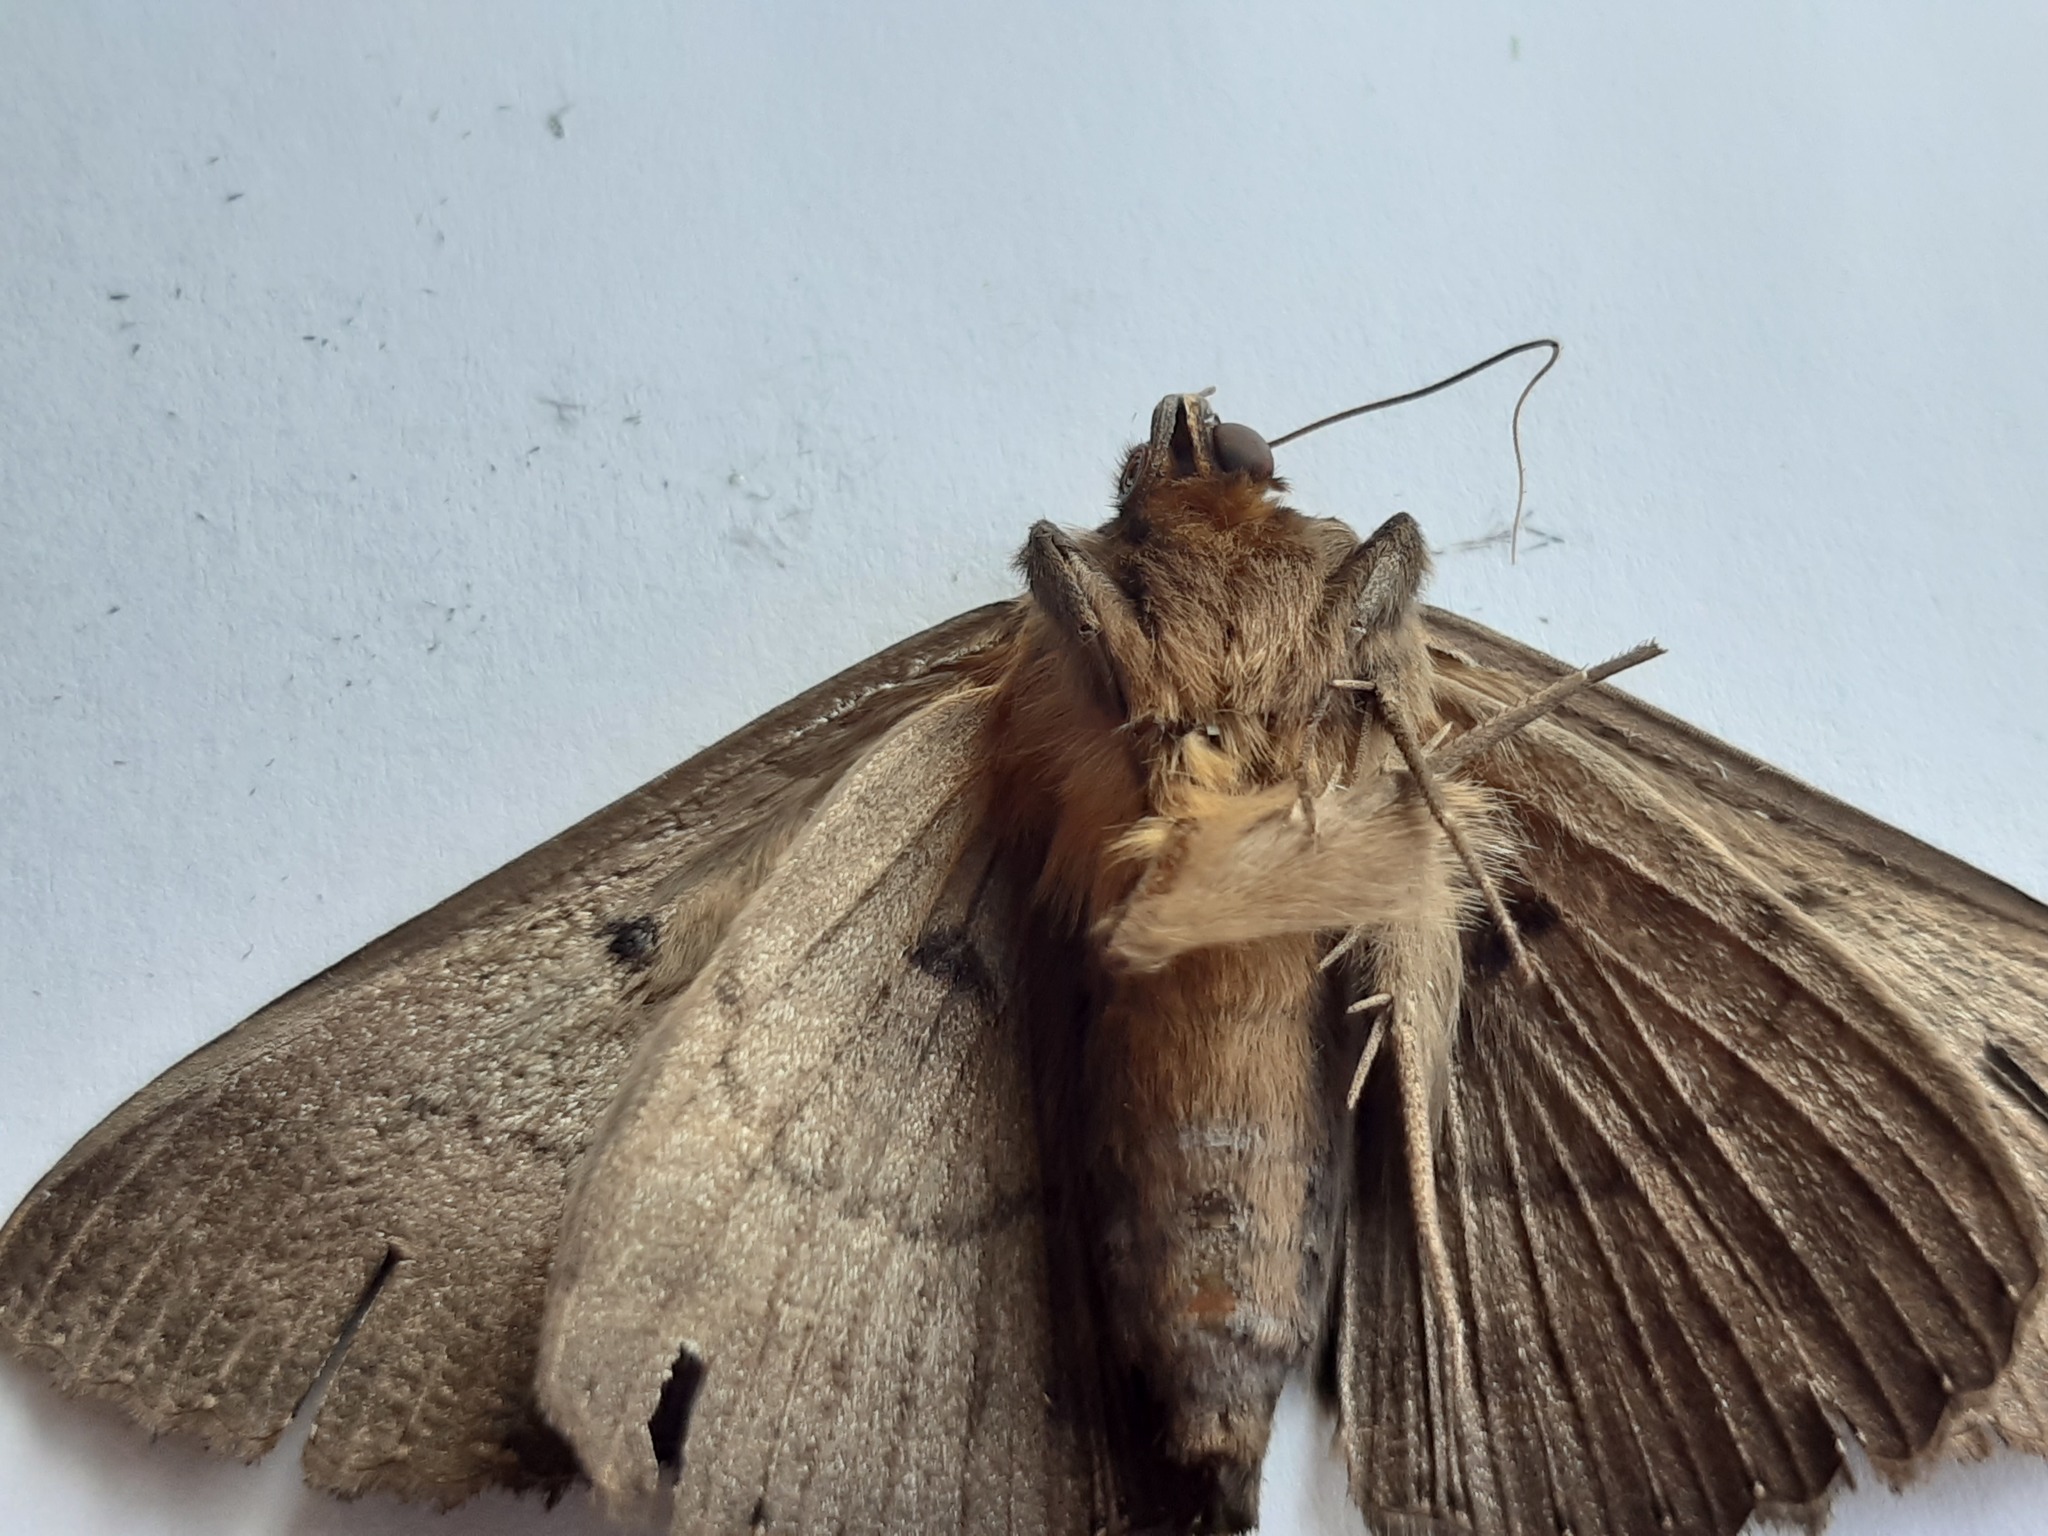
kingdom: Animalia
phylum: Arthropoda
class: Insecta
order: Lepidoptera
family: Erebidae
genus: Dasypodia
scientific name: Dasypodia cymatodes
